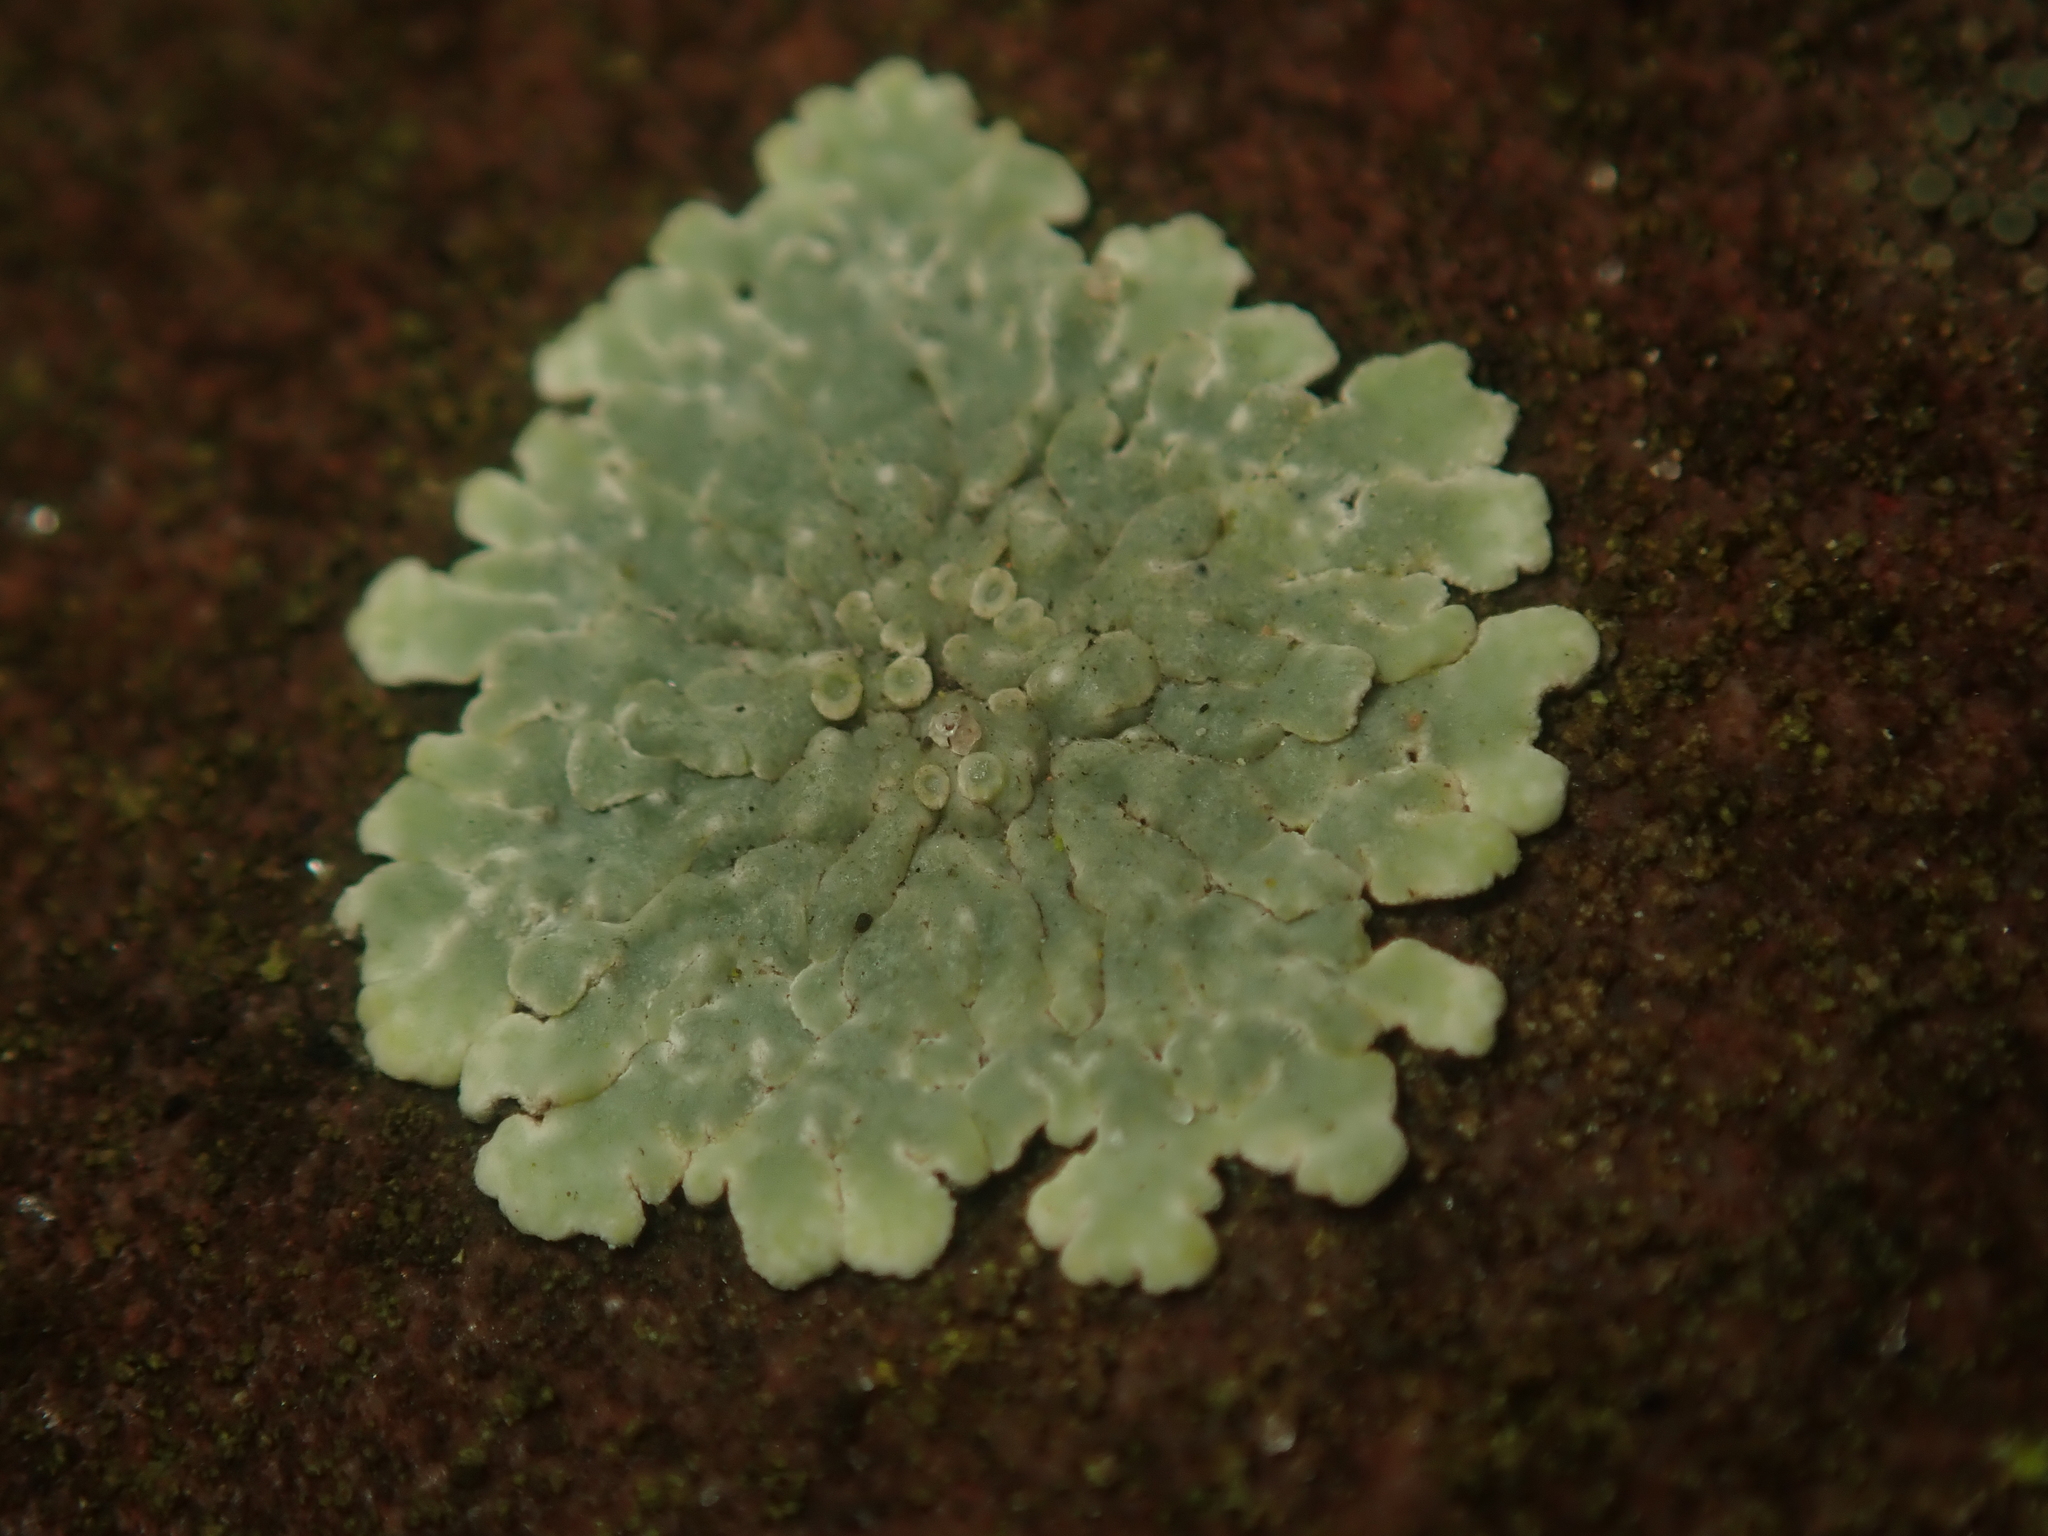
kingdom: Fungi
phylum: Ascomycota
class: Lecanoromycetes
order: Lecanorales
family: Lecanoraceae
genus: Protoparmeliopsis
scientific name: Protoparmeliopsis muralis
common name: Stonewall rim lichen
